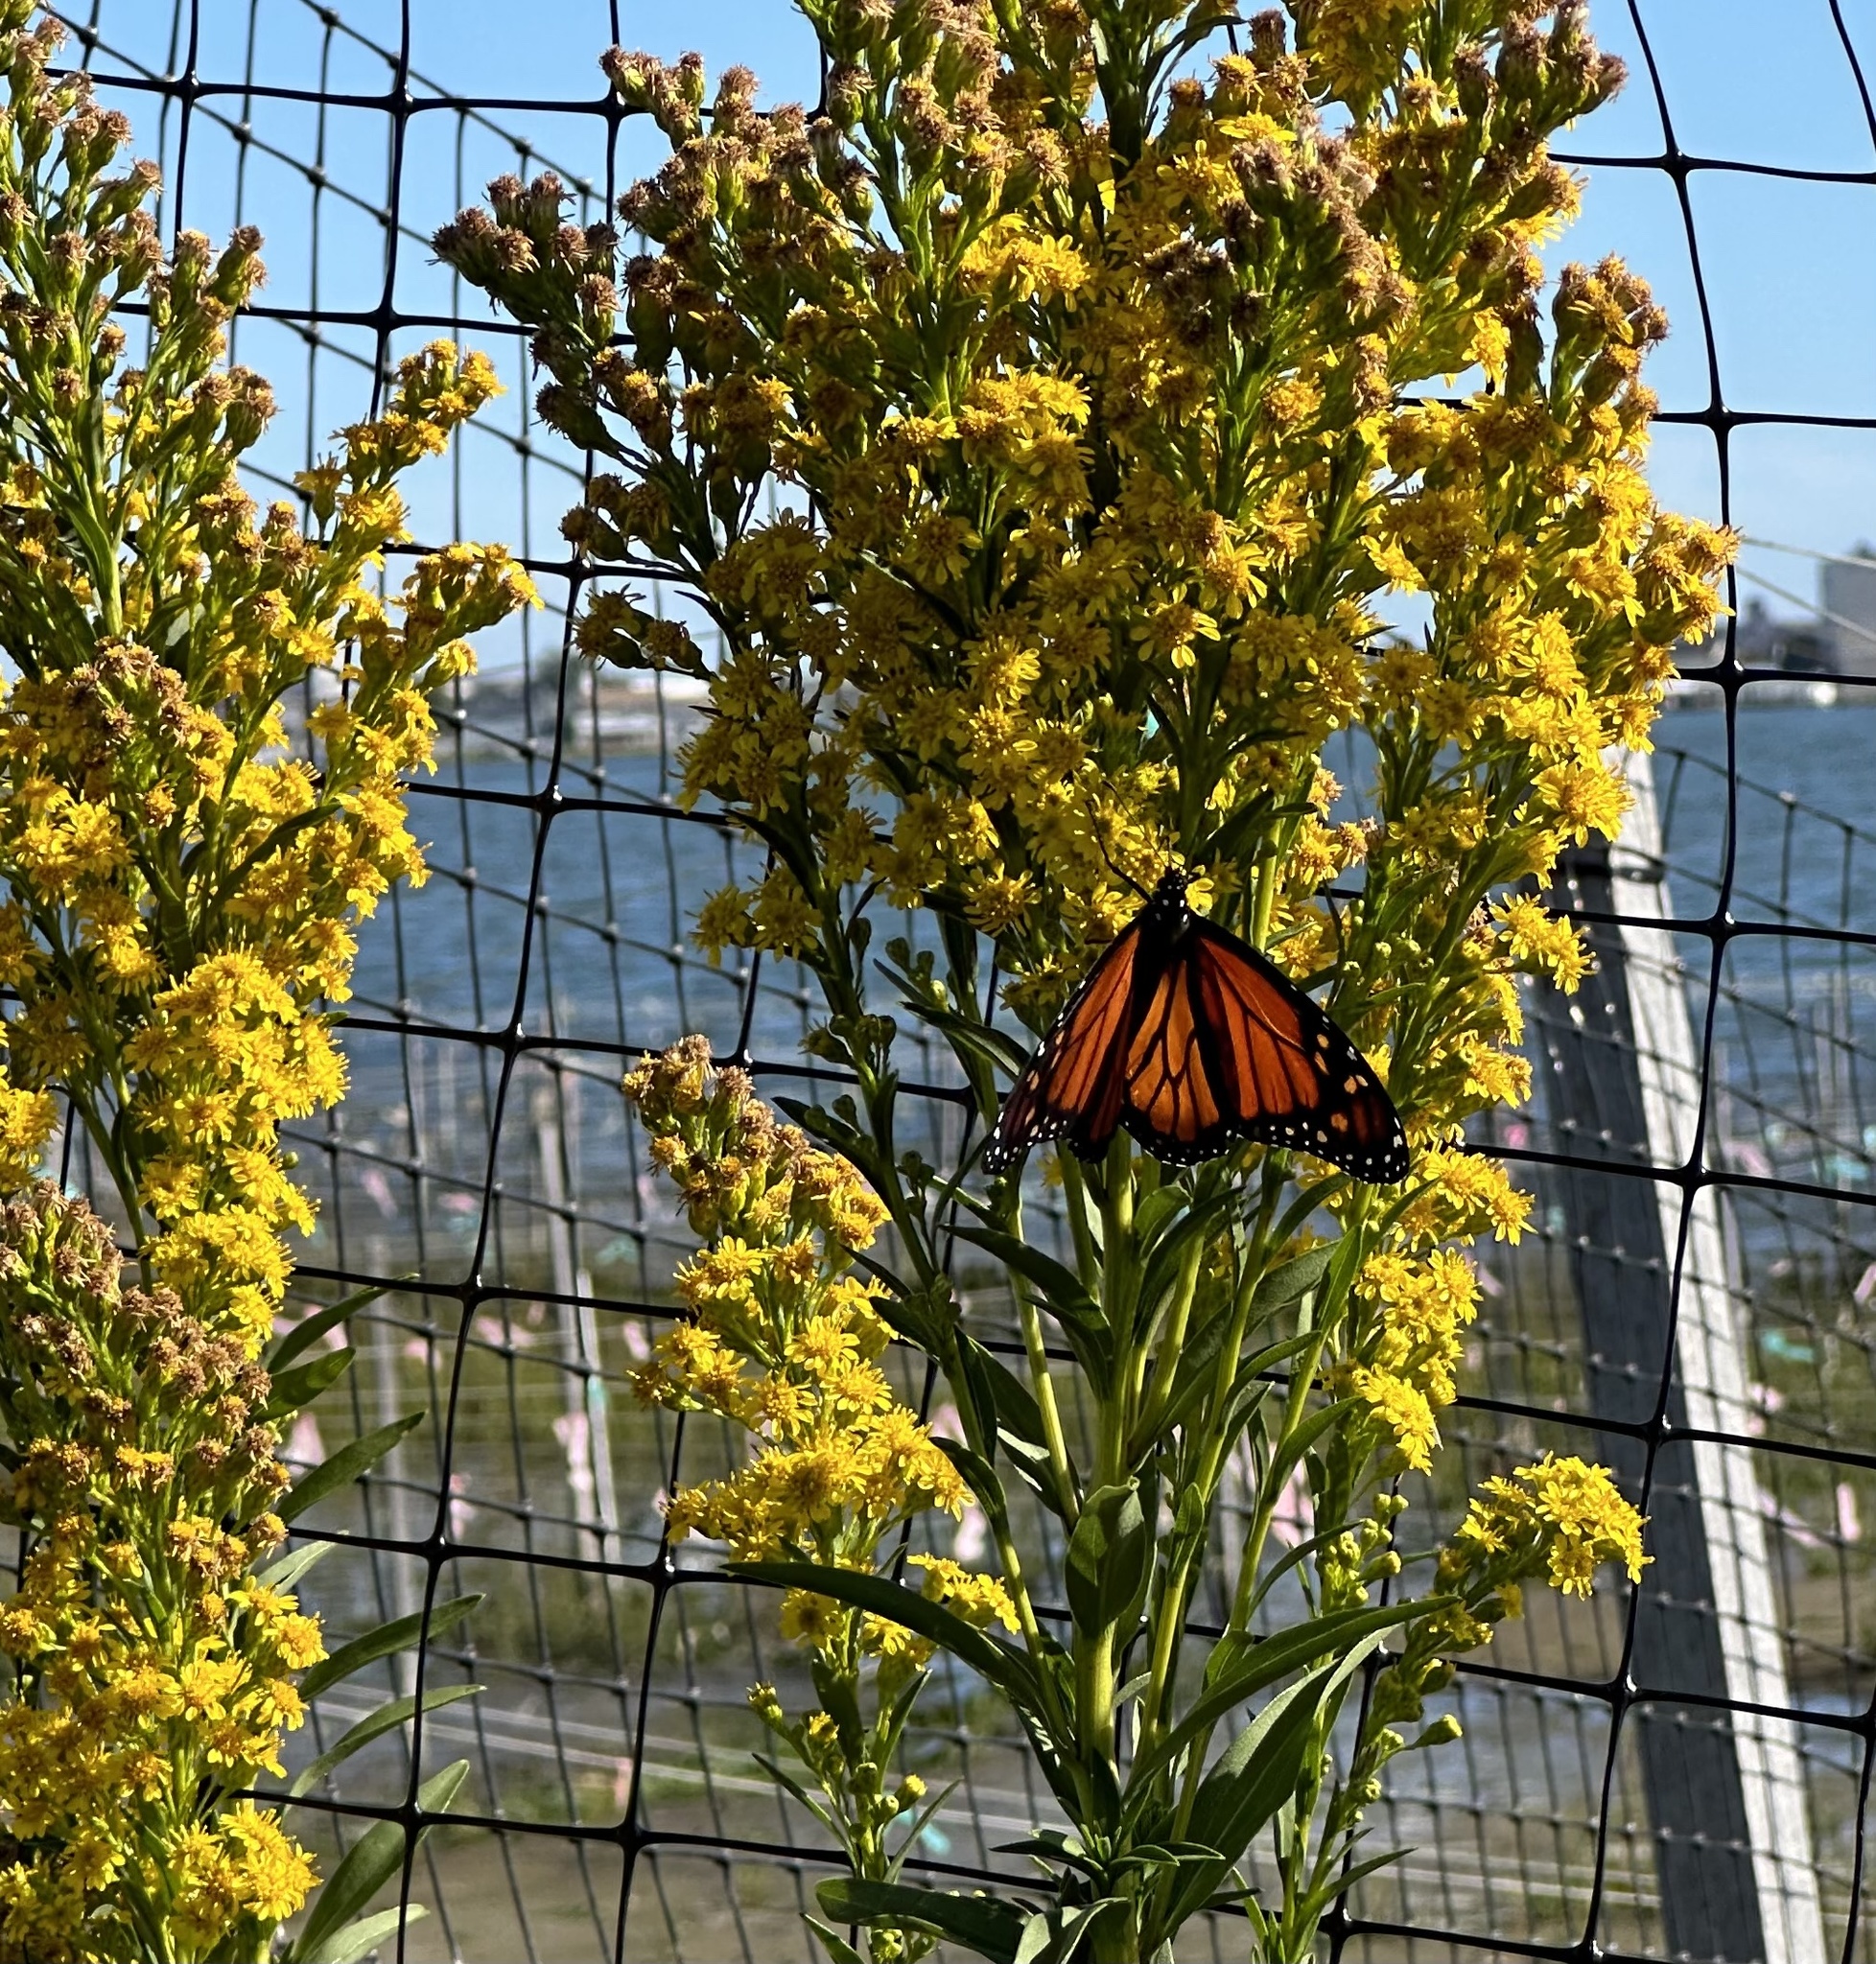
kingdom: Animalia
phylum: Arthropoda
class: Insecta
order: Lepidoptera
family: Nymphalidae
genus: Danaus
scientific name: Danaus plexippus
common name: Monarch
